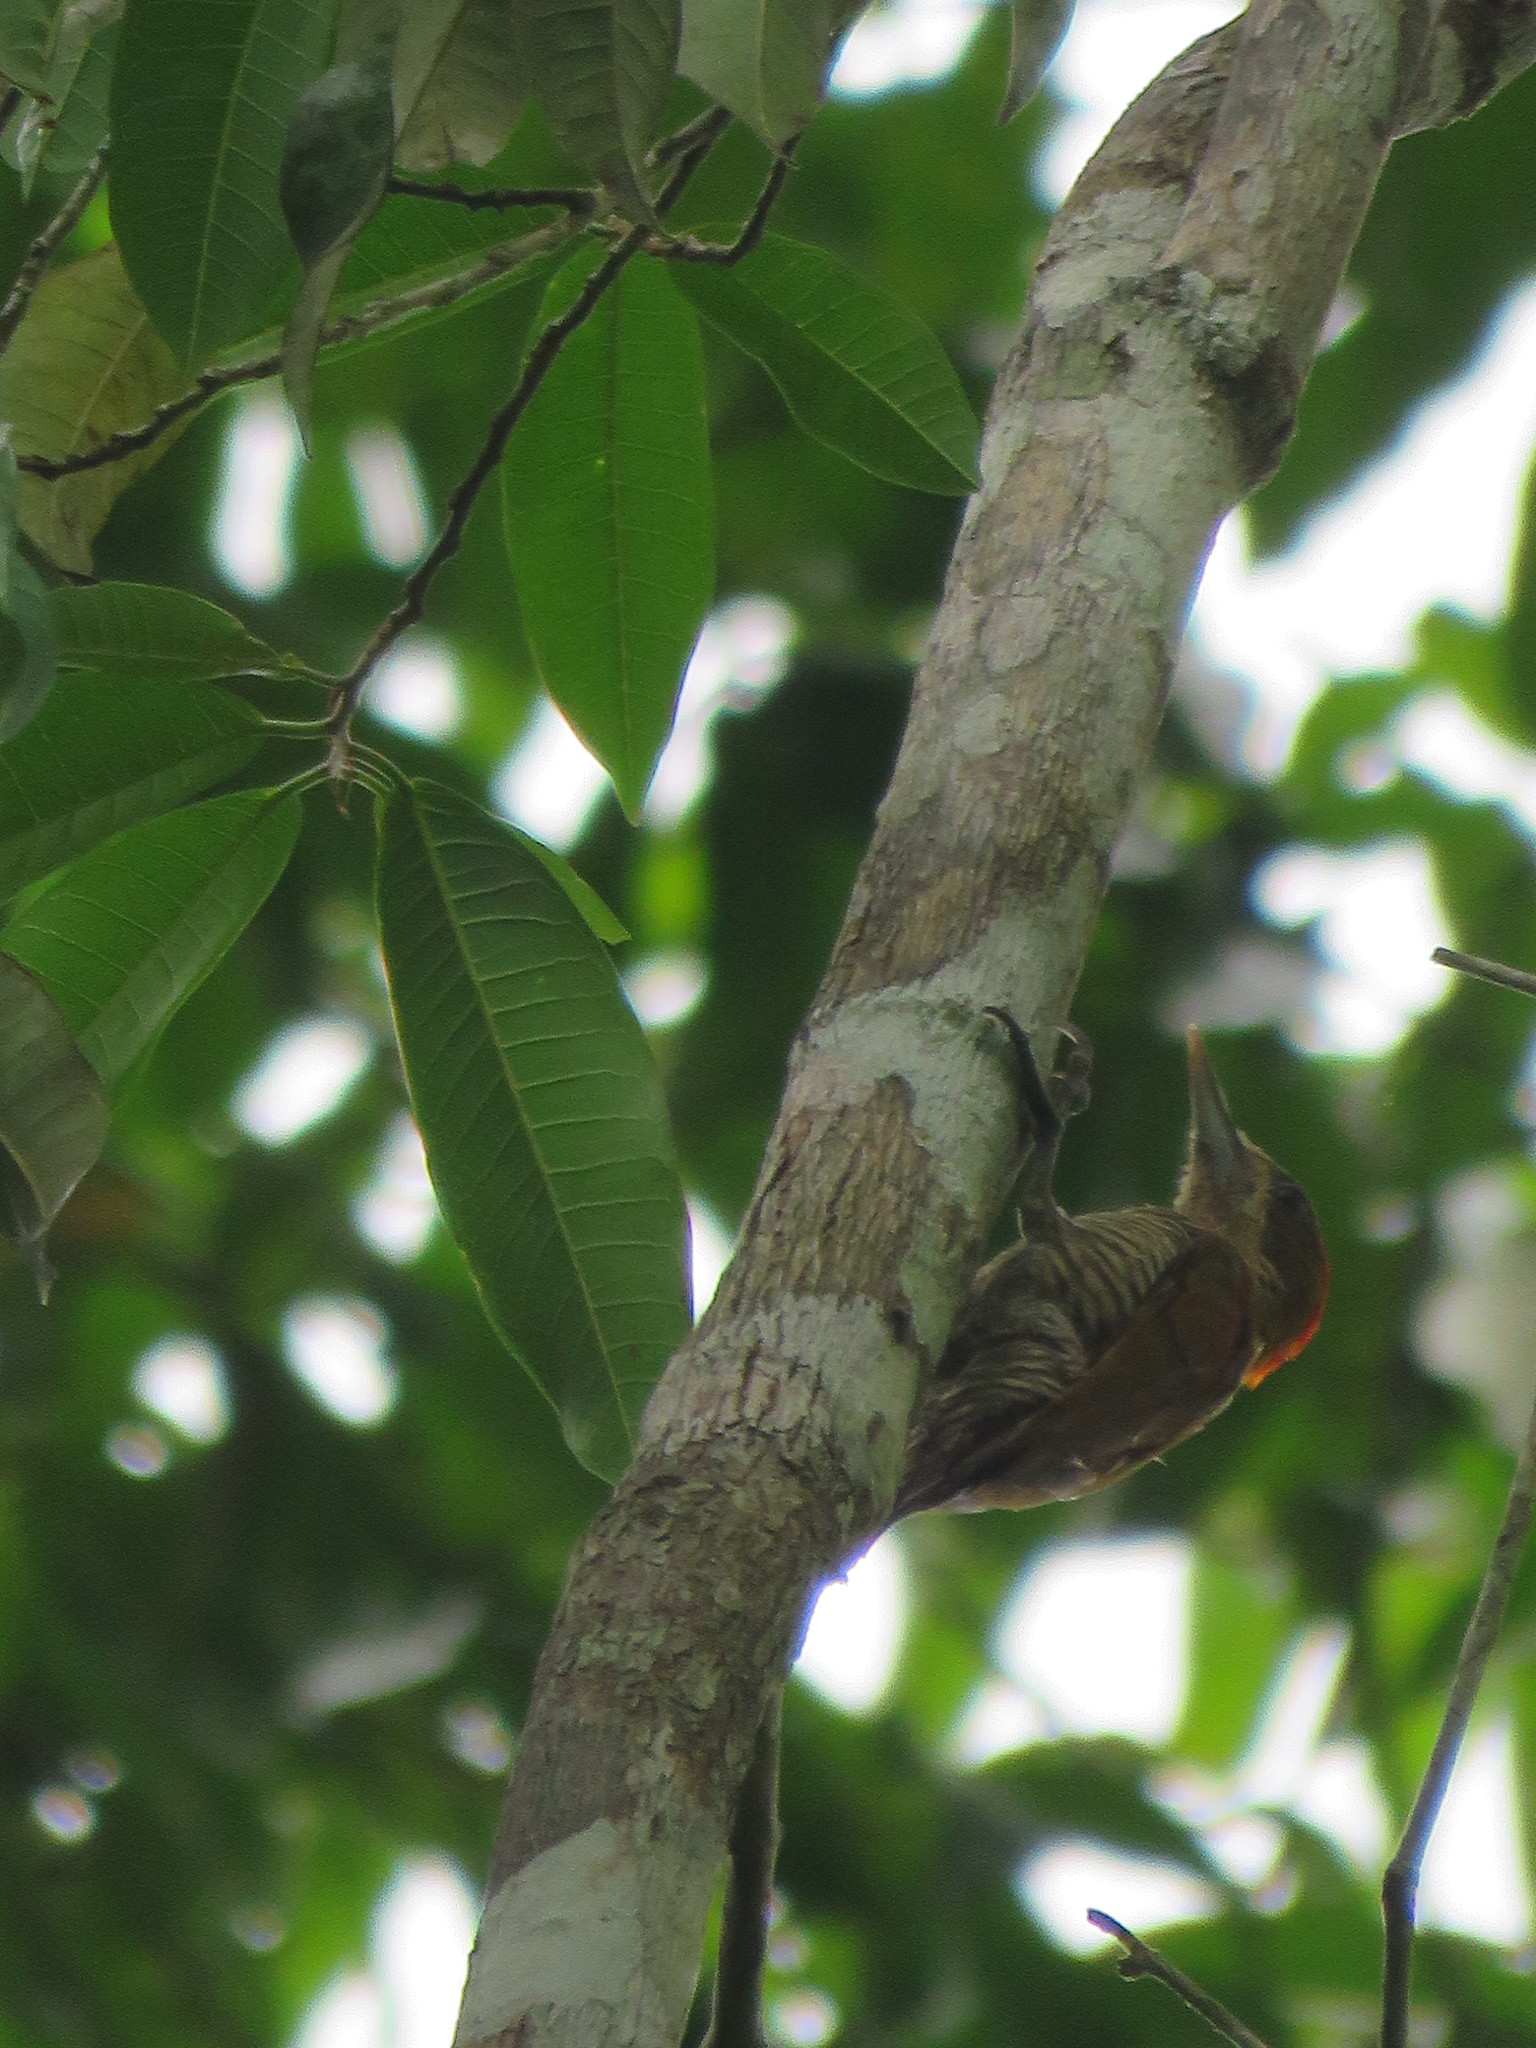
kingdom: Animalia
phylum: Chordata
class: Aves
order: Piciformes
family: Picidae
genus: Veniliornis
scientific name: Veniliornis affinis
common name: Red-stained woodpecker
